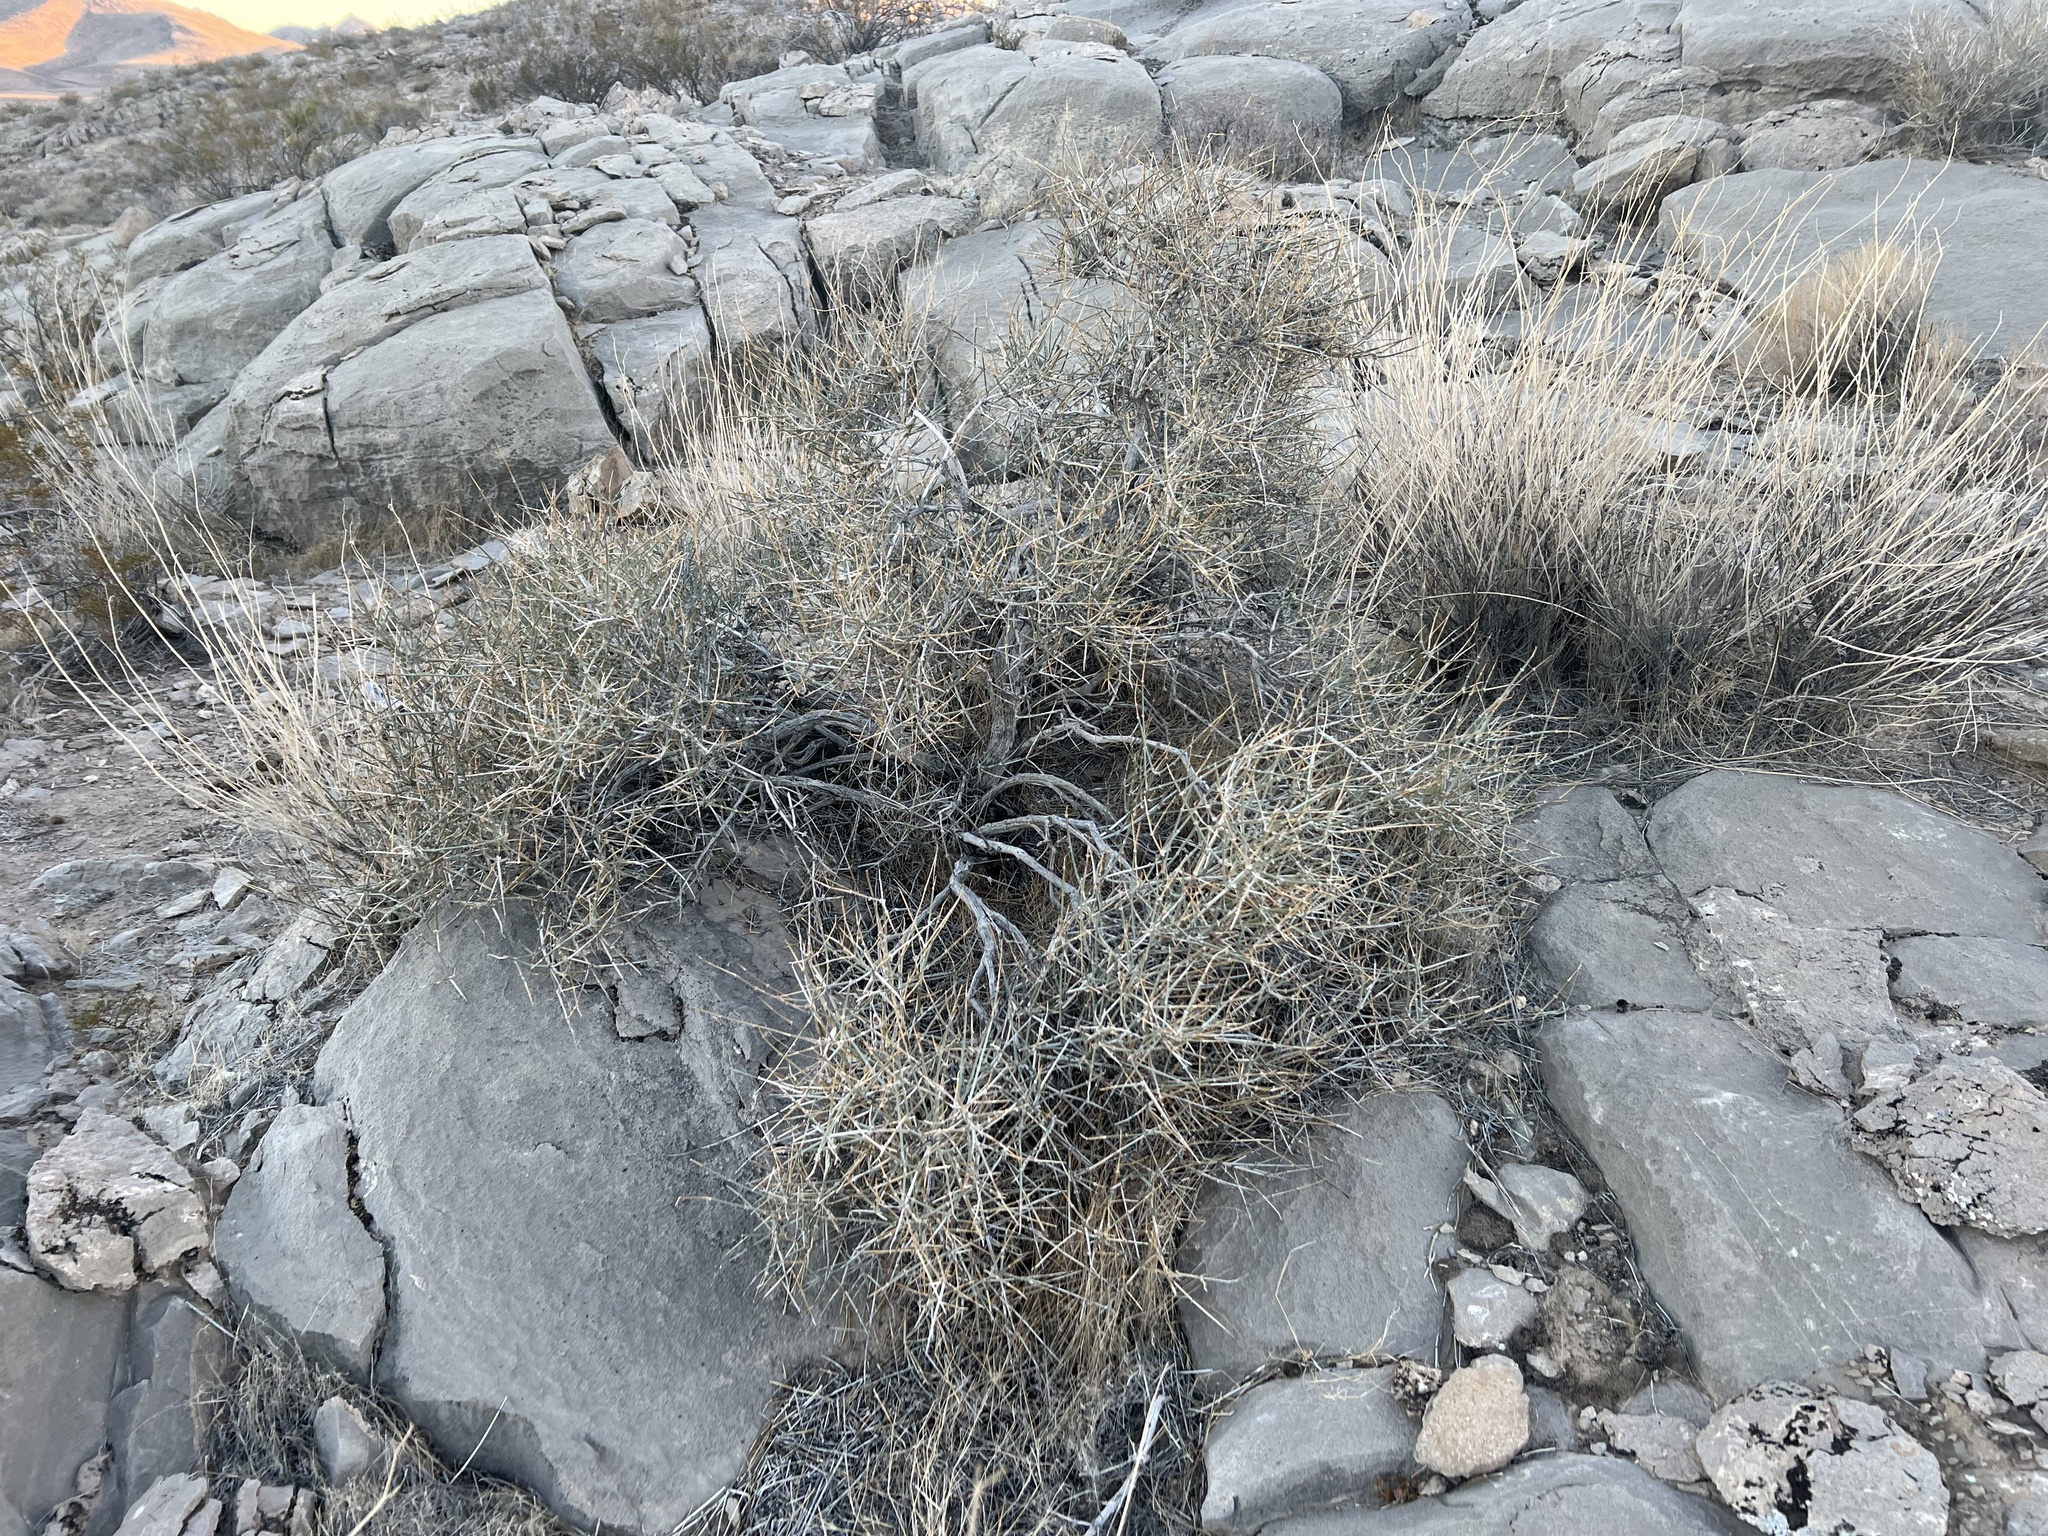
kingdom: Plantae
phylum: Tracheophyta
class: Gnetopsida
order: Ephedrales
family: Ephedraceae
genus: Ephedra
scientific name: Ephedra nevadensis
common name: Gray ephedra
